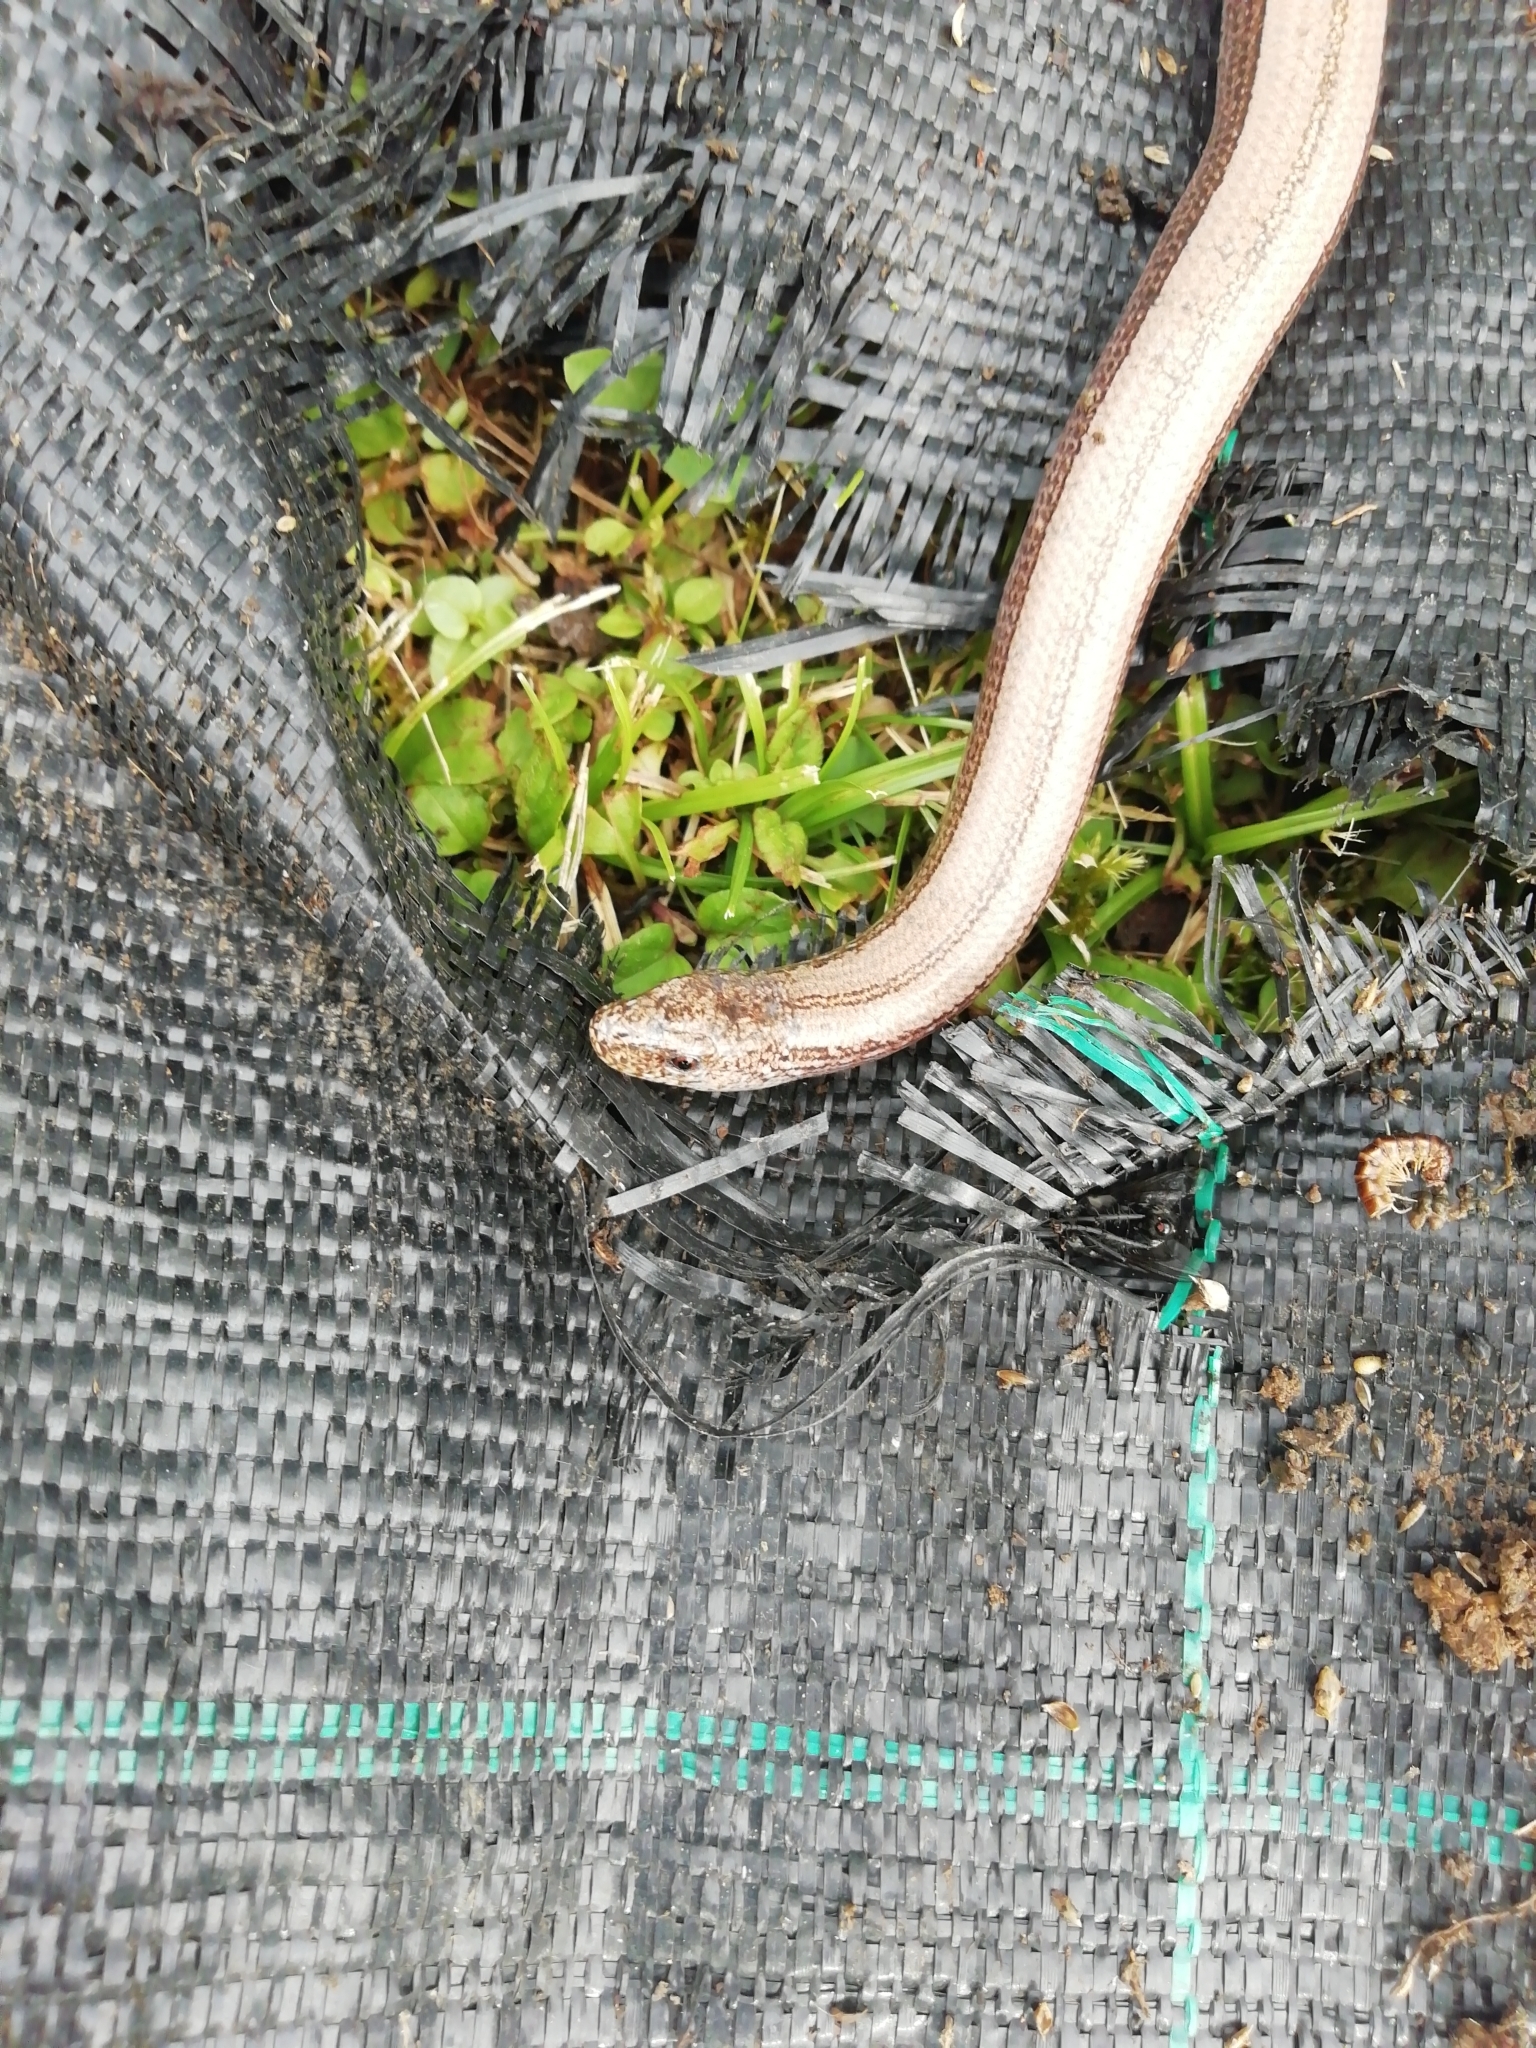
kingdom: Animalia
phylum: Chordata
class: Squamata
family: Anguidae
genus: Anguis
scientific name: Anguis veronensis
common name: Italian slow worm
